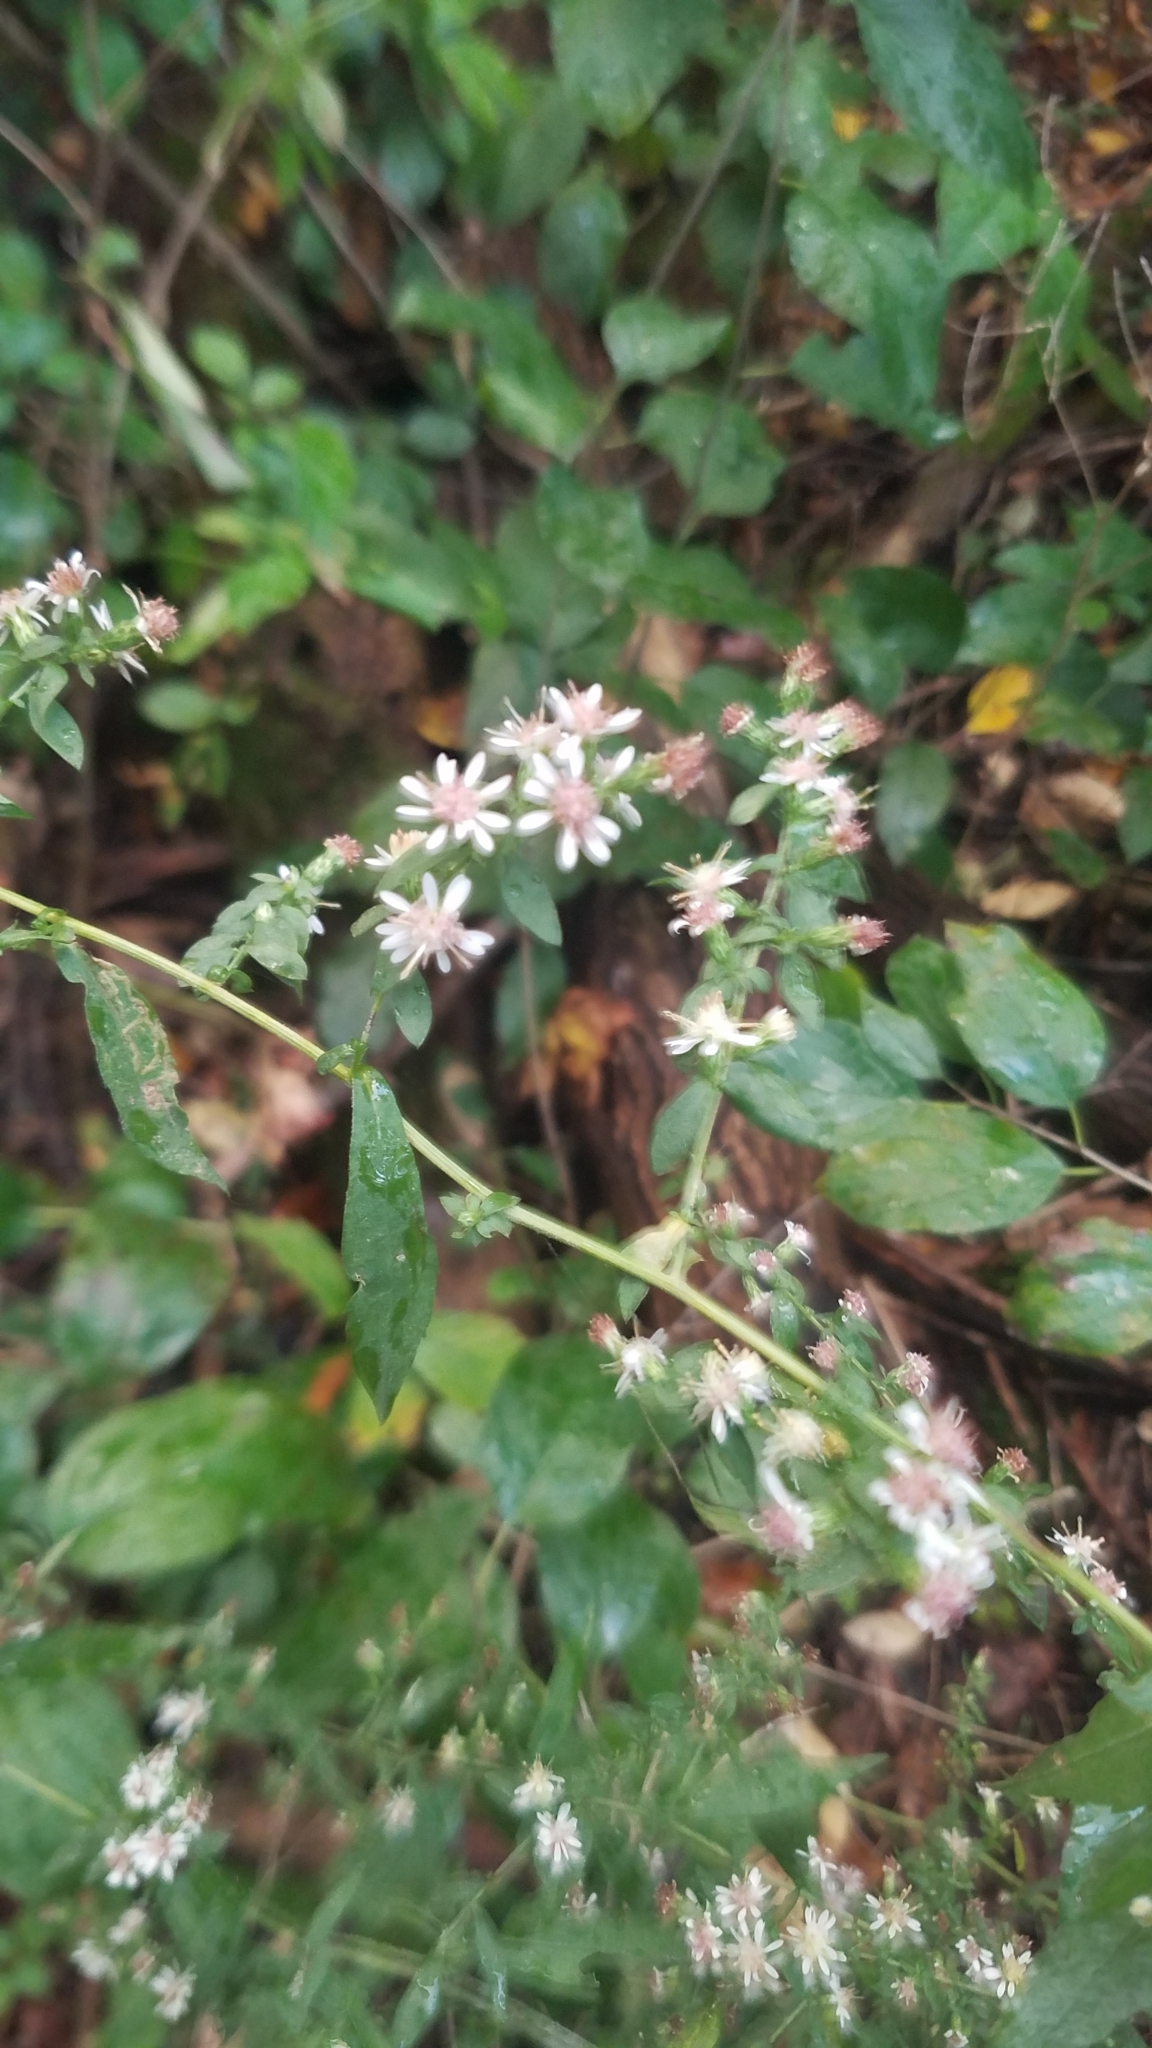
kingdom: Plantae
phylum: Tracheophyta
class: Magnoliopsida
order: Asterales
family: Asteraceae
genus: Symphyotrichum
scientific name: Symphyotrichum lateriflorum
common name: Calico aster
